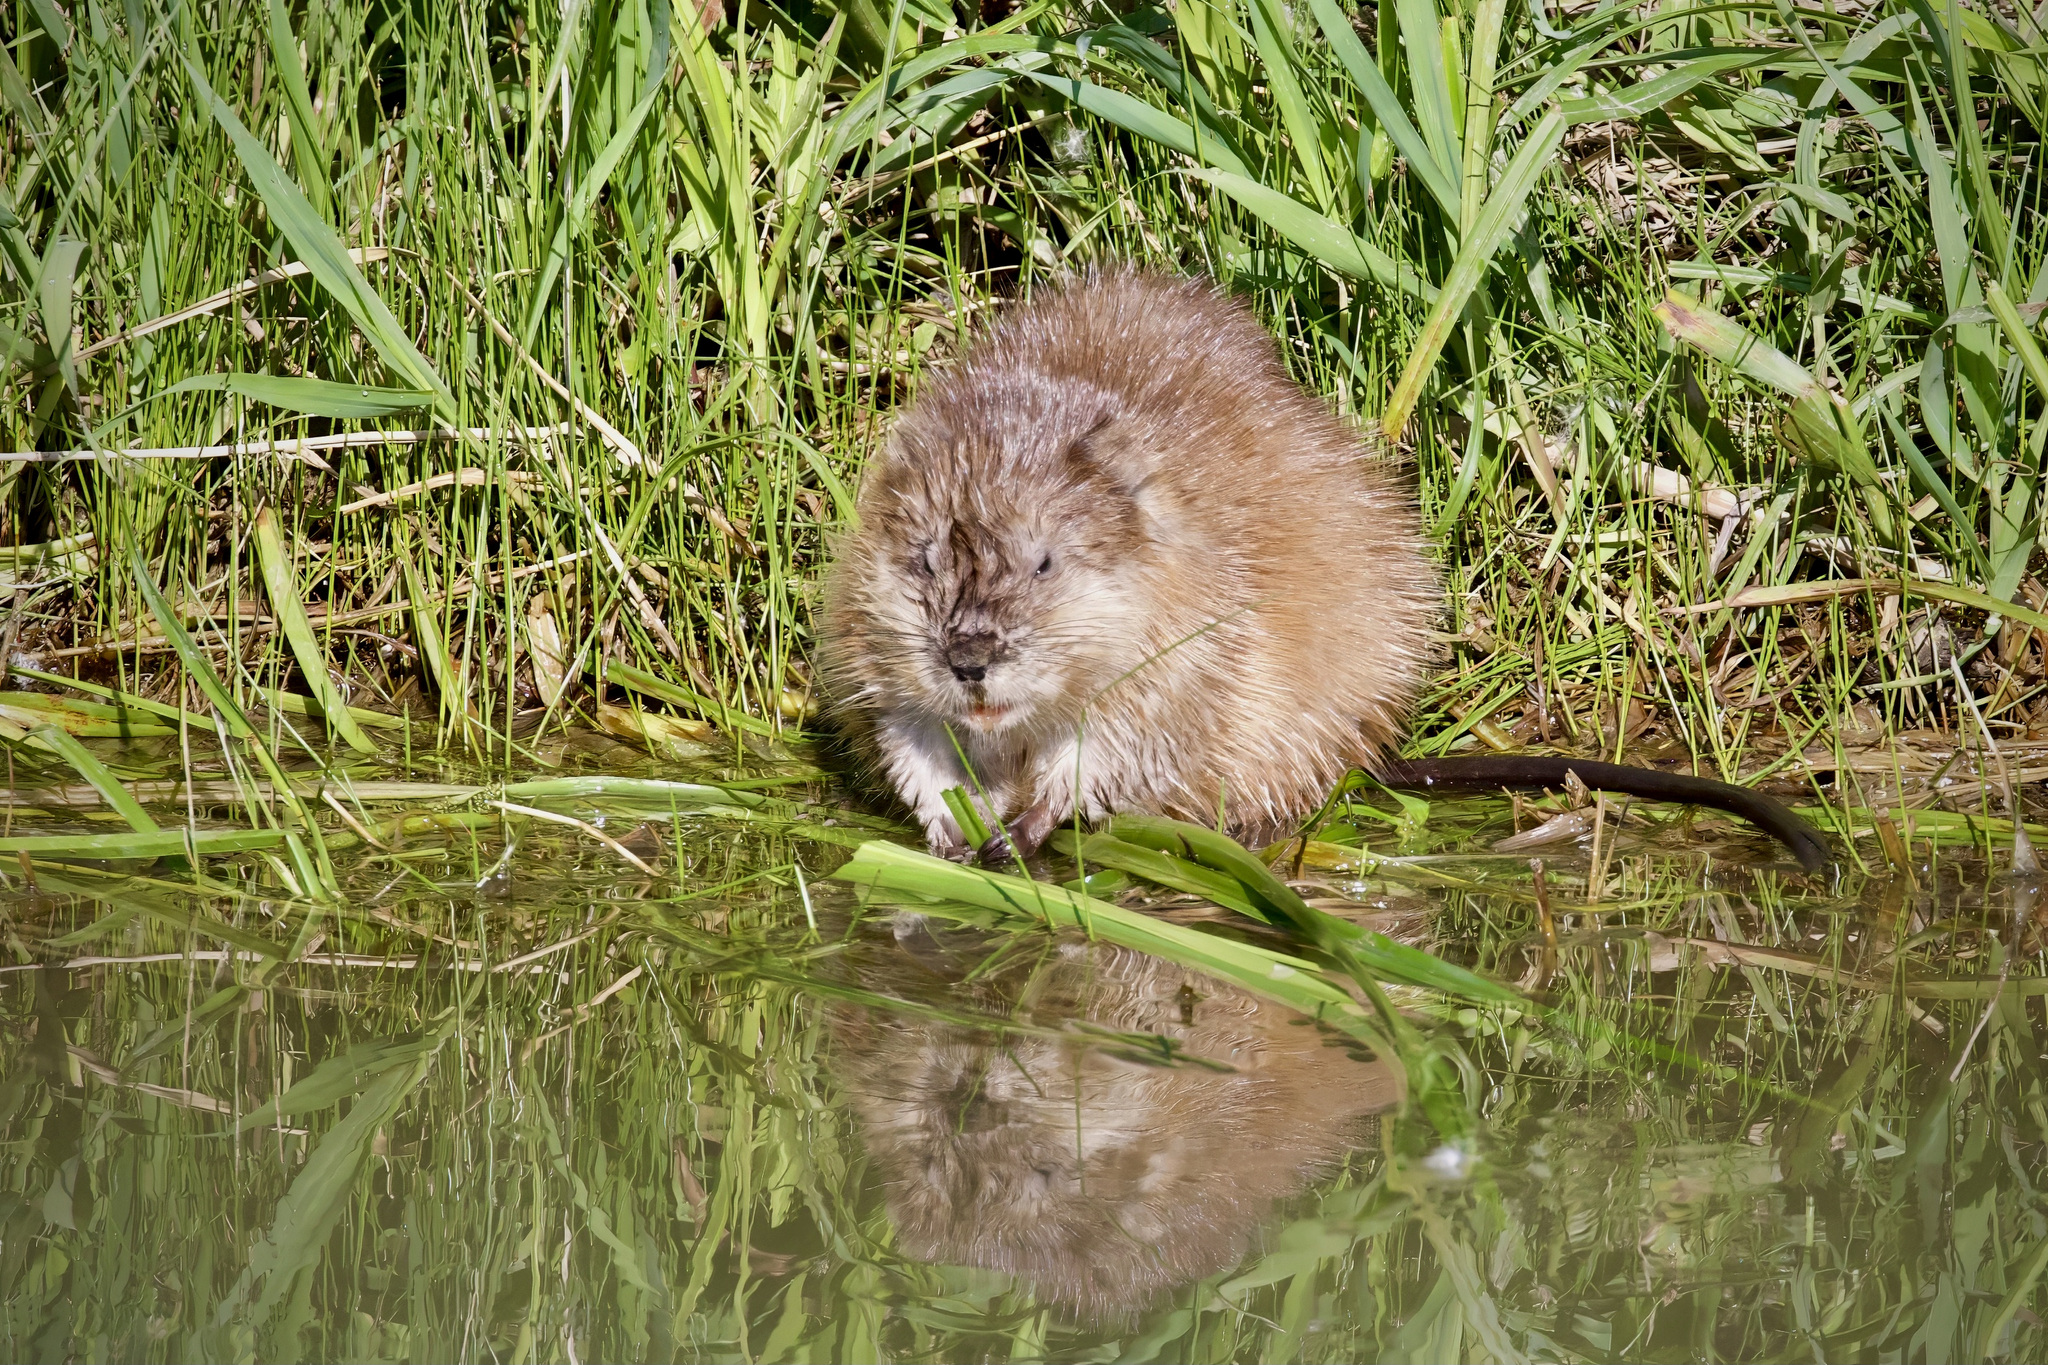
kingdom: Animalia
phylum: Chordata
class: Mammalia
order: Rodentia
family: Cricetidae
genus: Ondatra
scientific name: Ondatra zibethicus
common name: Muskrat
